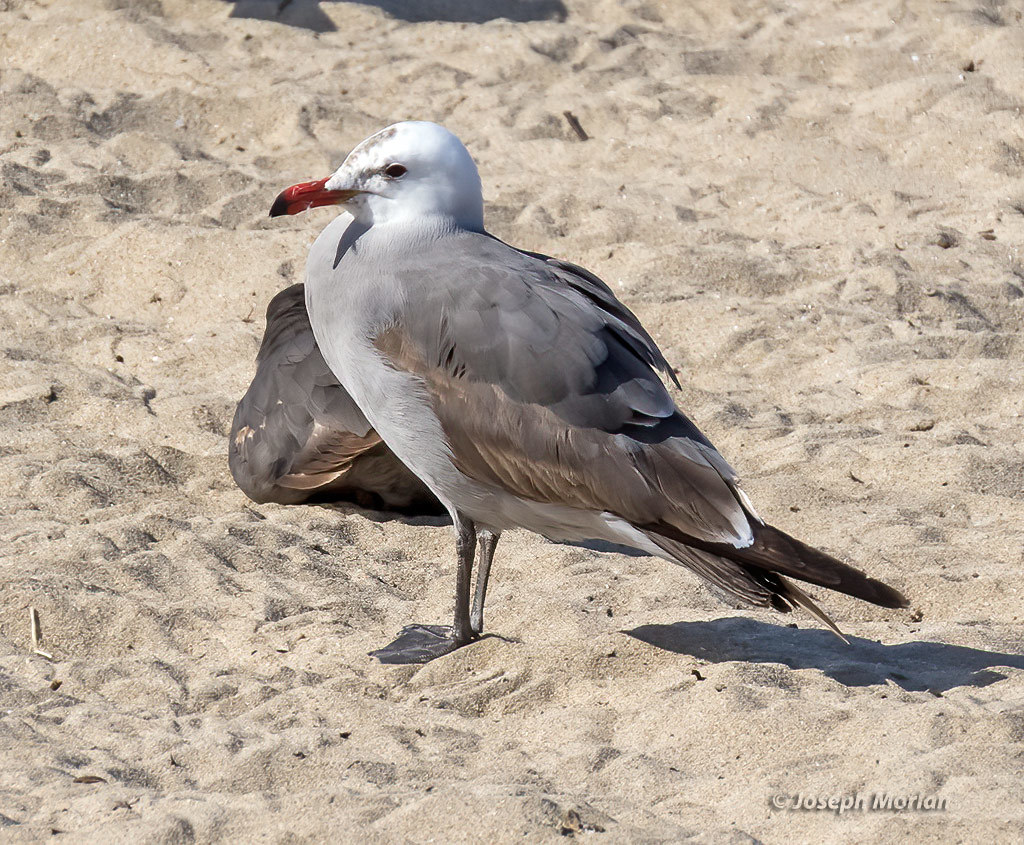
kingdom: Animalia
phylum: Chordata
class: Aves
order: Charadriiformes
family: Laridae
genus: Larus
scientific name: Larus heermanni
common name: Heermann's gull
